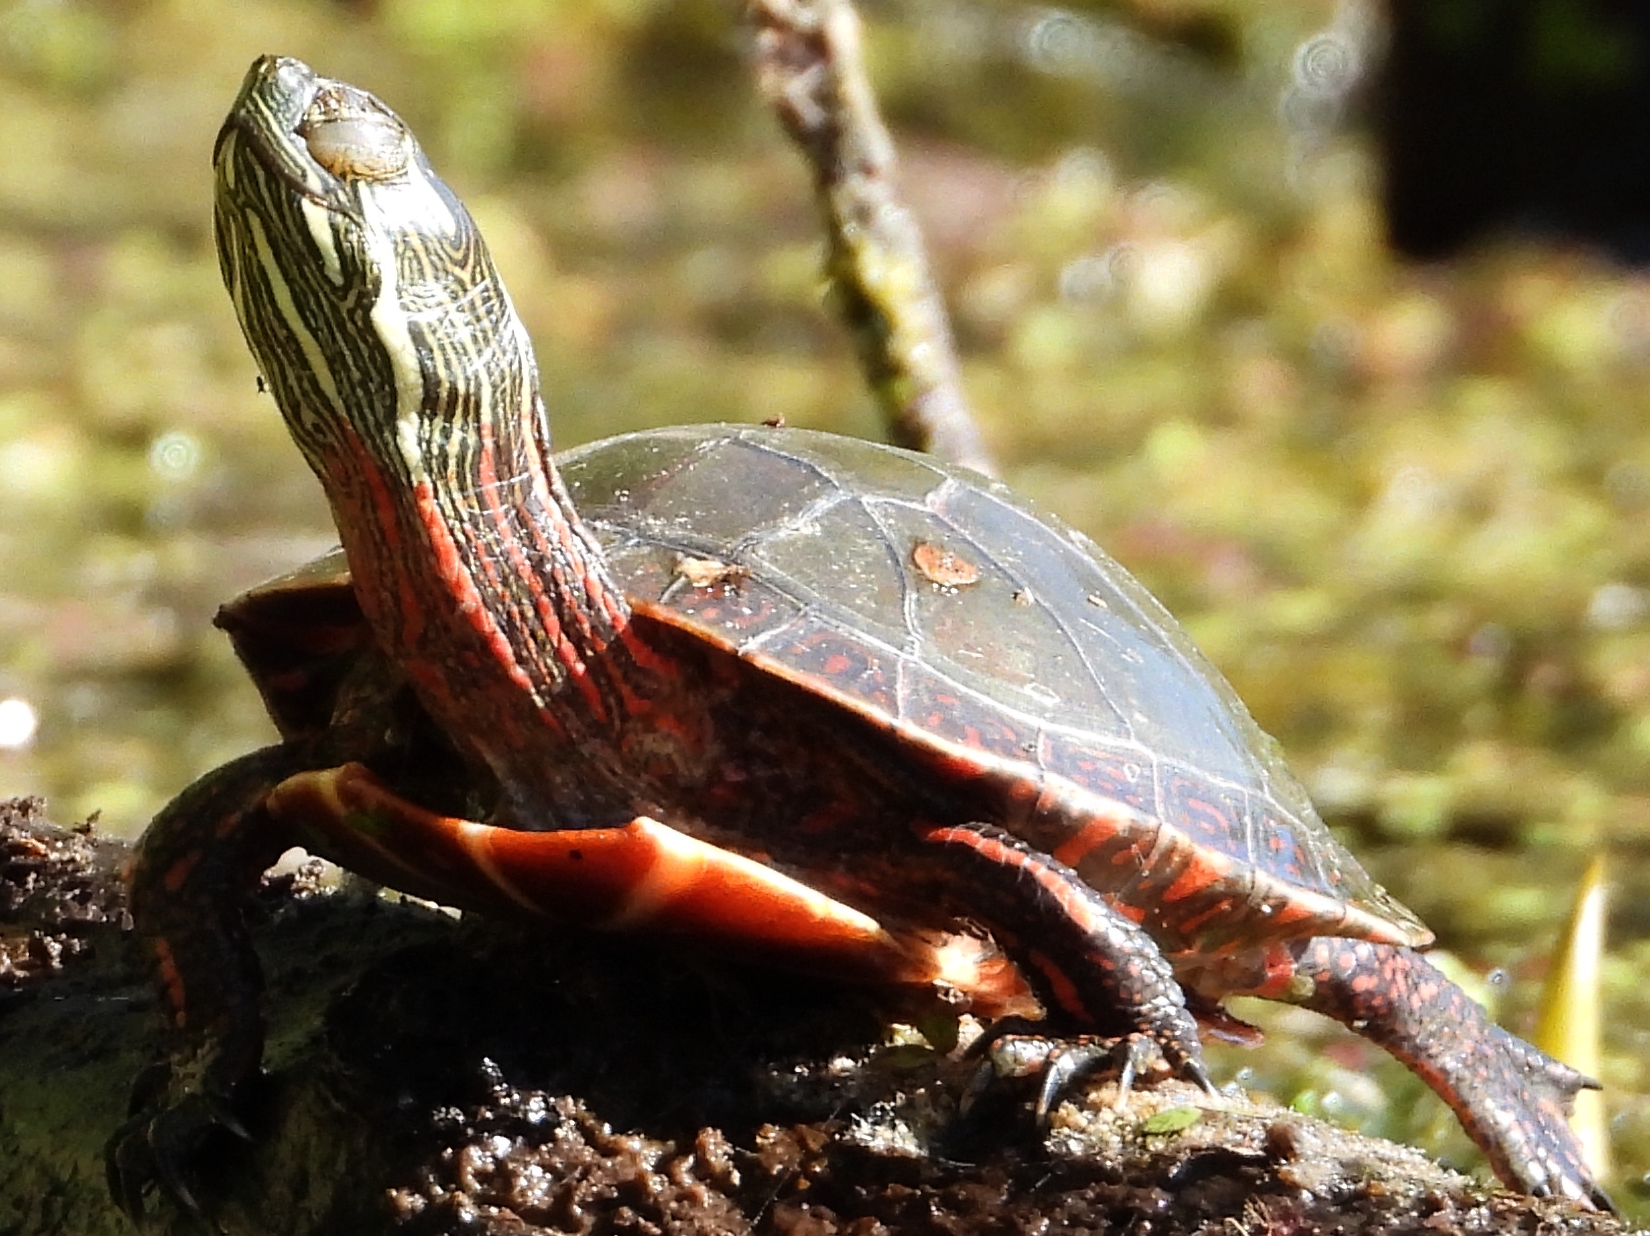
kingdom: Animalia
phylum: Chordata
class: Testudines
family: Emydidae
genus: Chrysemys
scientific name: Chrysemys picta
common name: Painted turtle
